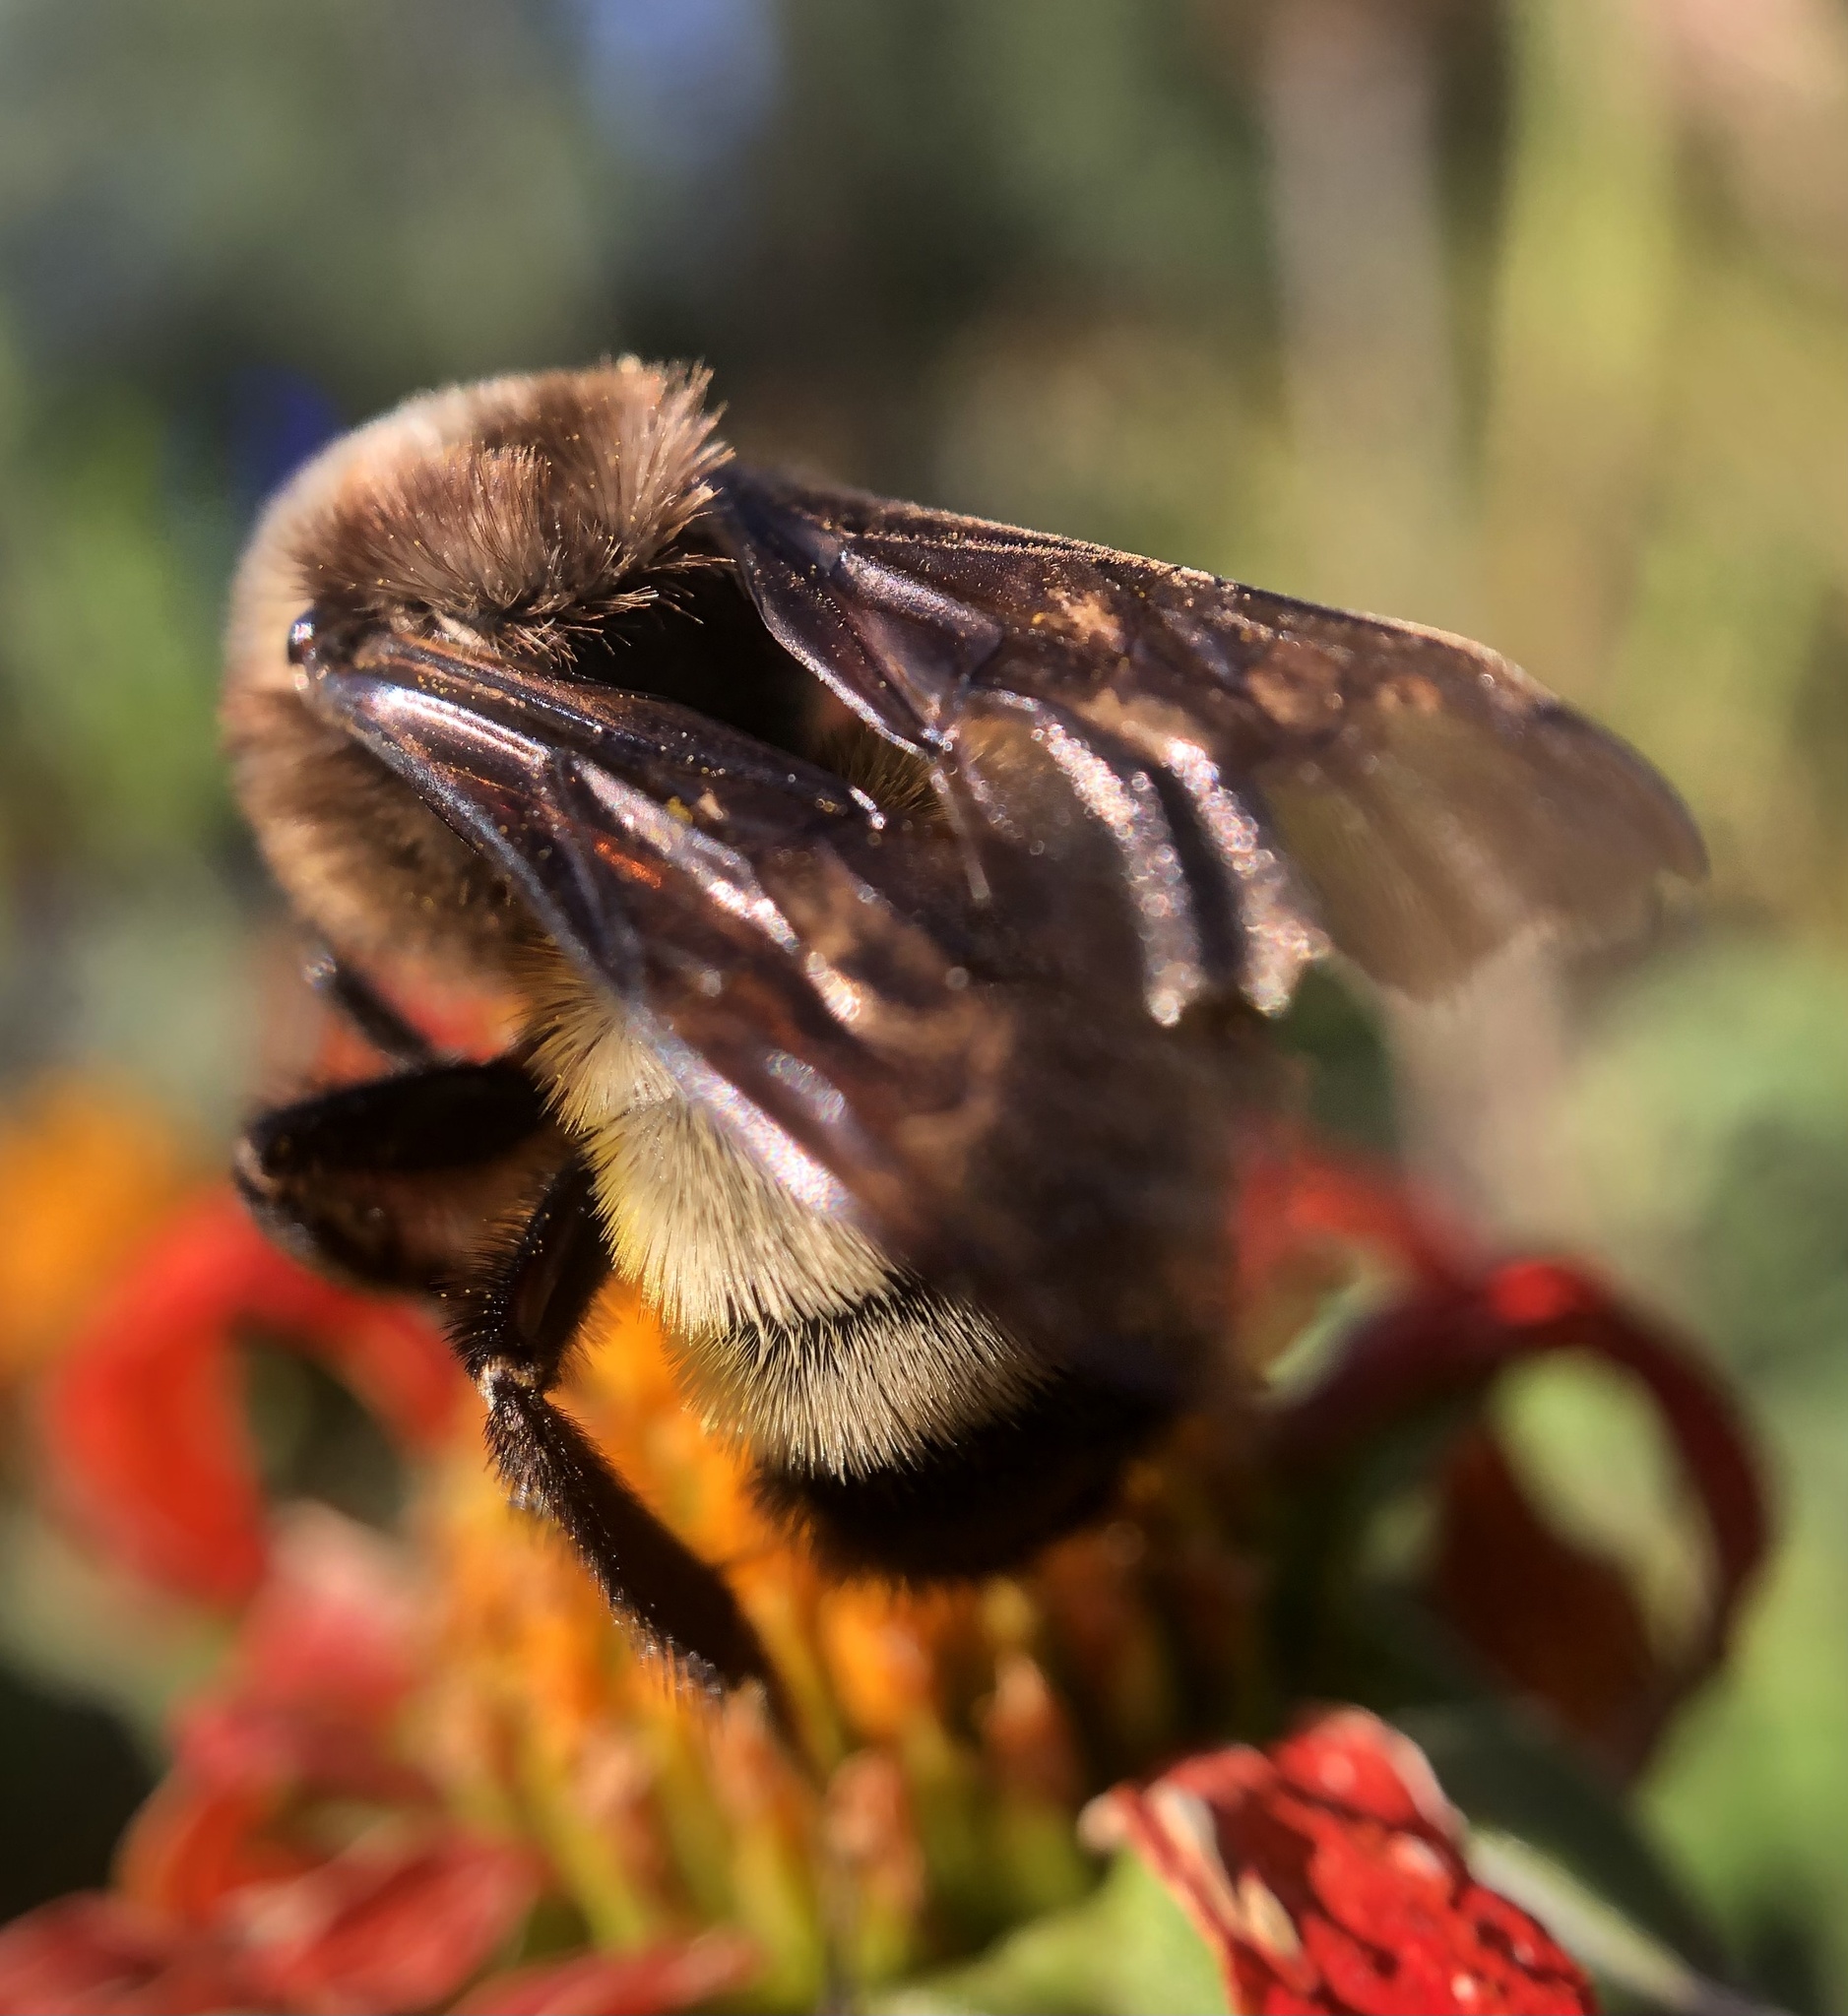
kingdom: Animalia
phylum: Arthropoda
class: Insecta
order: Hymenoptera
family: Apidae
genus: Bombus
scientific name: Bombus pensylvanicus
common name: Bumble bee
